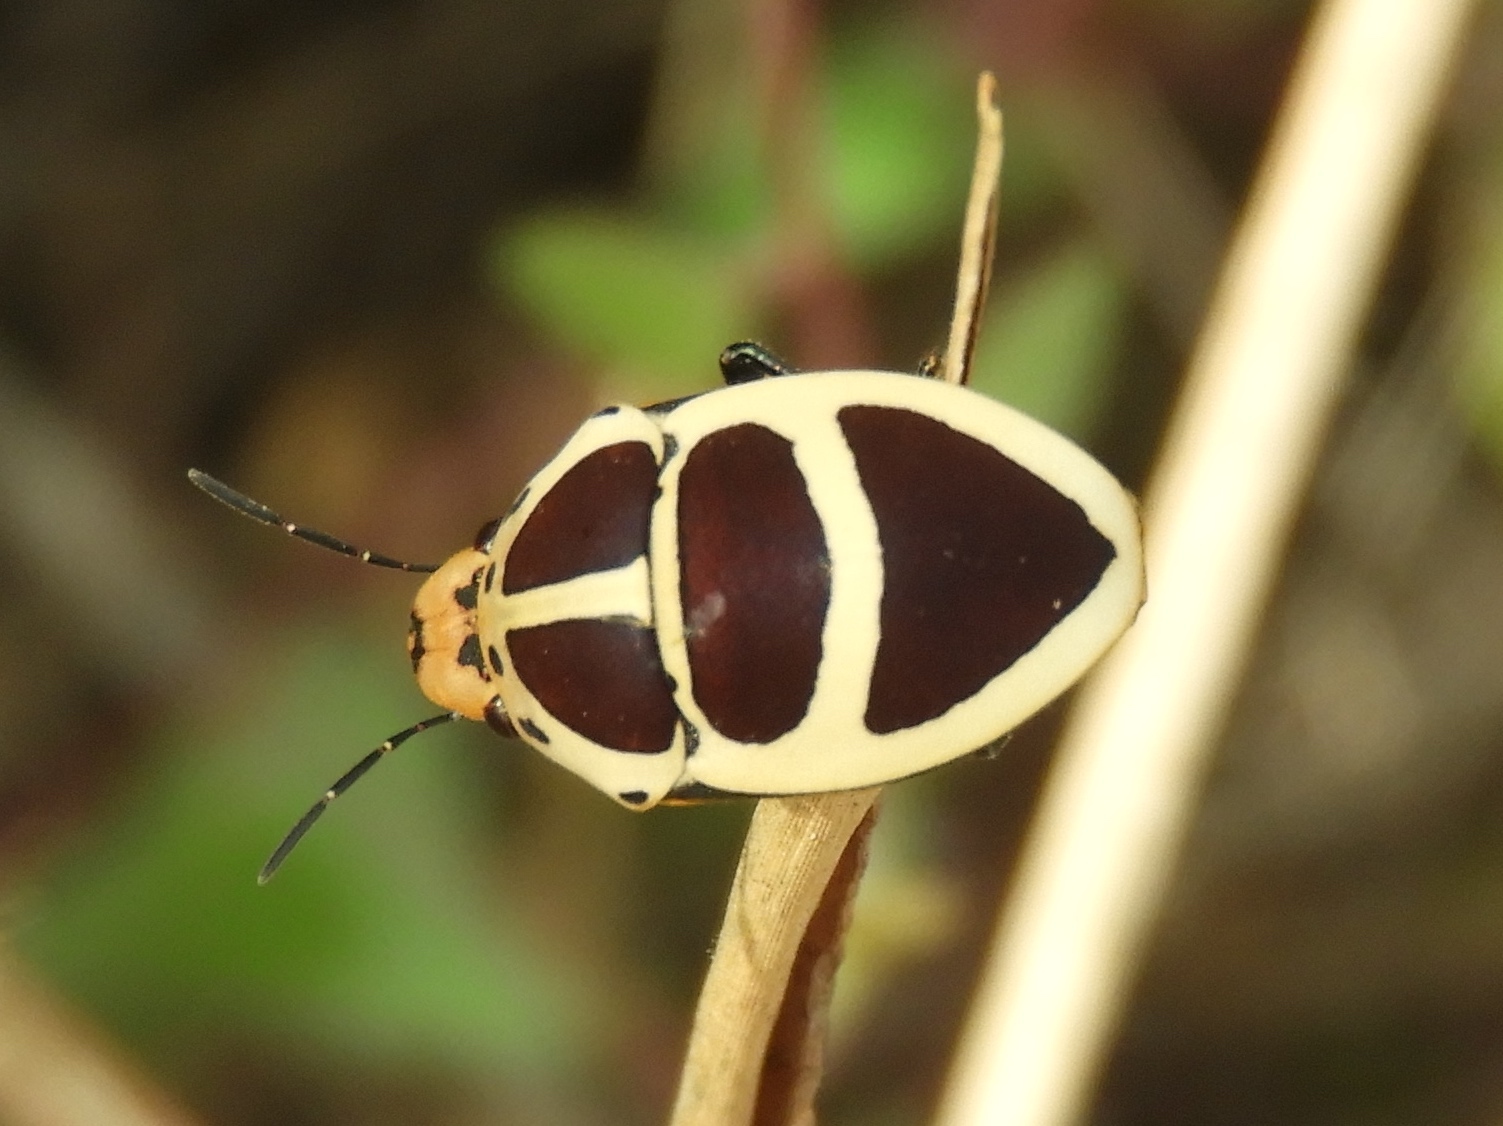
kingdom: Animalia
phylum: Arthropoda
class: Insecta
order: Hemiptera
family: Scutelleridae
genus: Tiridates
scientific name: Tiridates
